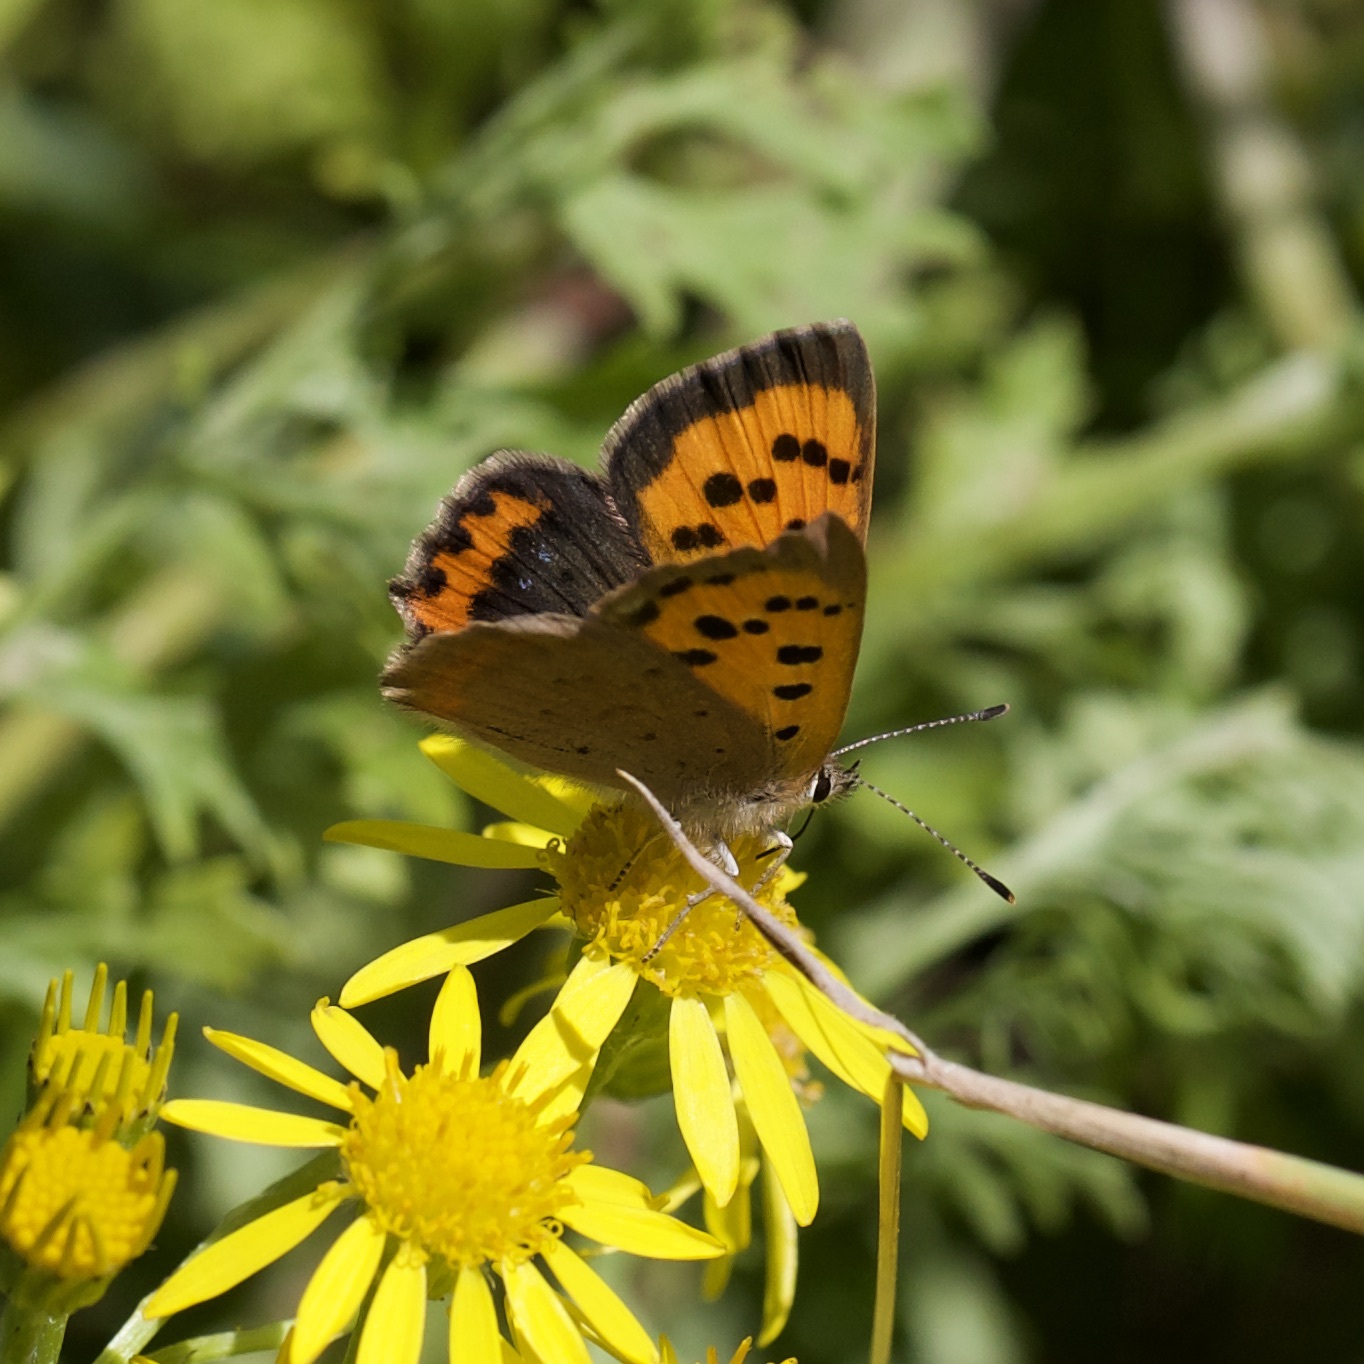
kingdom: Animalia
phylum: Arthropoda
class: Insecta
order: Lepidoptera
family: Lycaenidae
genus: Lycaena
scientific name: Lycaena phlaeas
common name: Small copper
